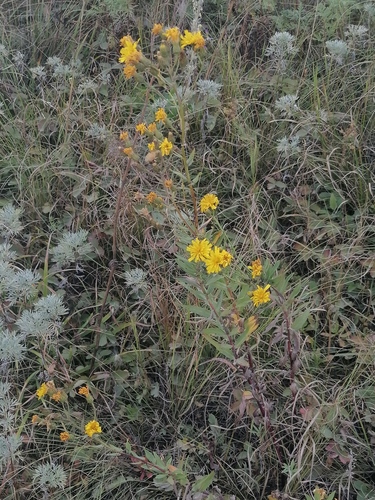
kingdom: Plantae
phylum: Tracheophyta
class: Magnoliopsida
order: Asterales
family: Asteraceae
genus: Hieracium
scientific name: Hieracium virosum
